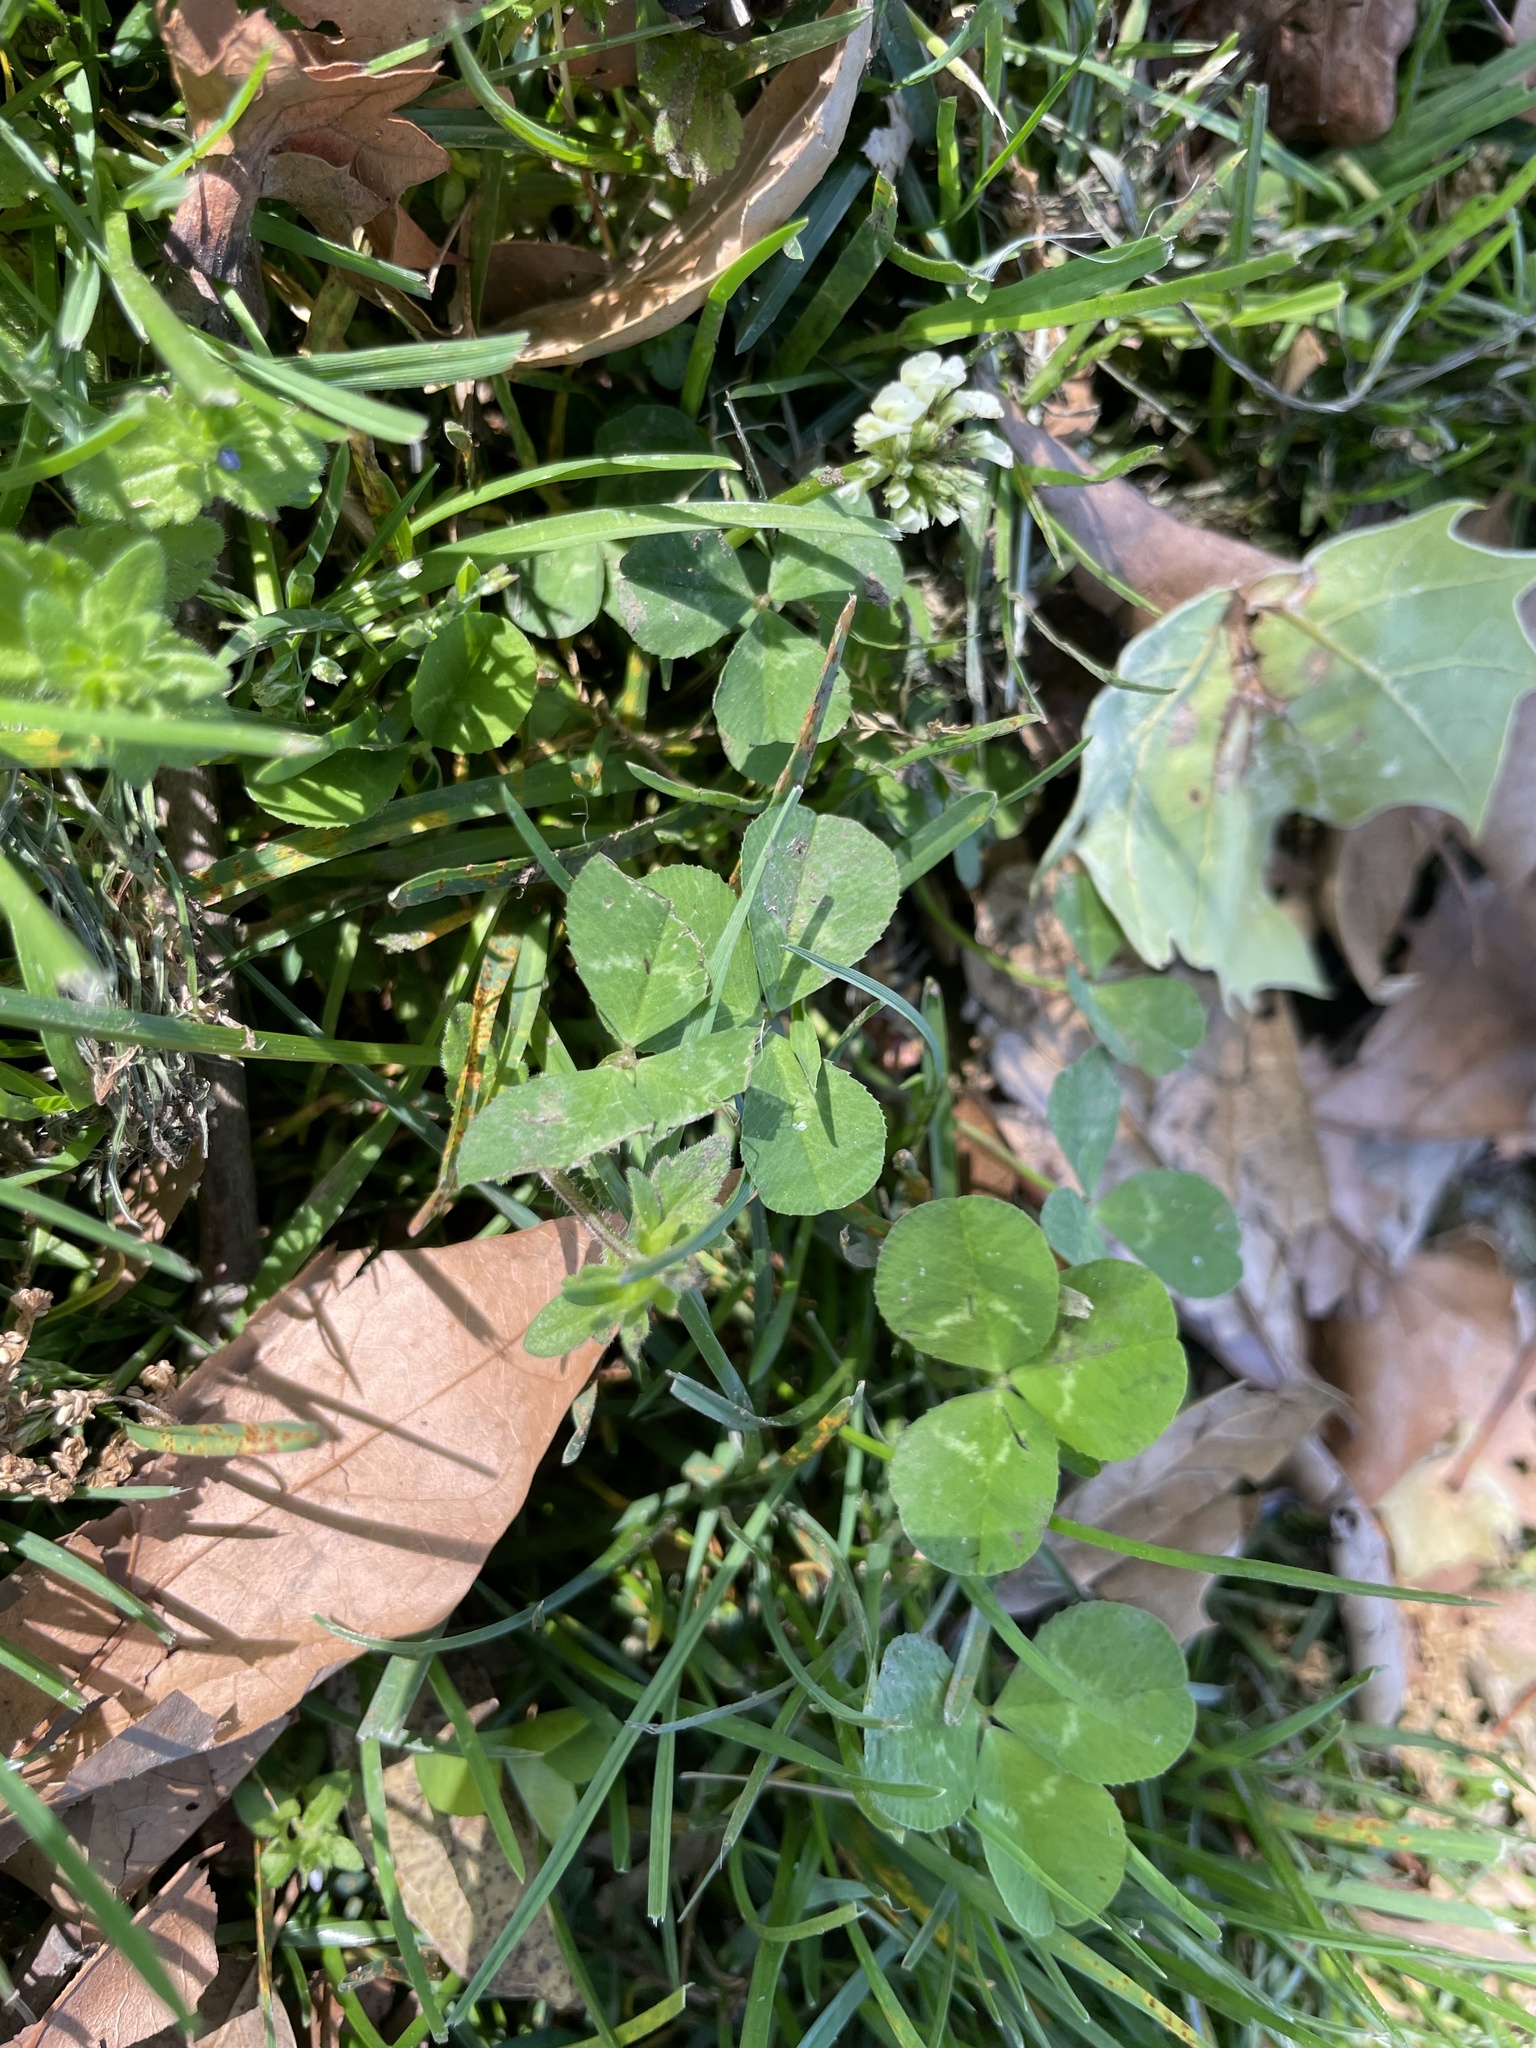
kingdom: Plantae
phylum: Tracheophyta
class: Magnoliopsida
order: Fabales
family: Fabaceae
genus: Trifolium
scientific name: Trifolium repens
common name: White clover
